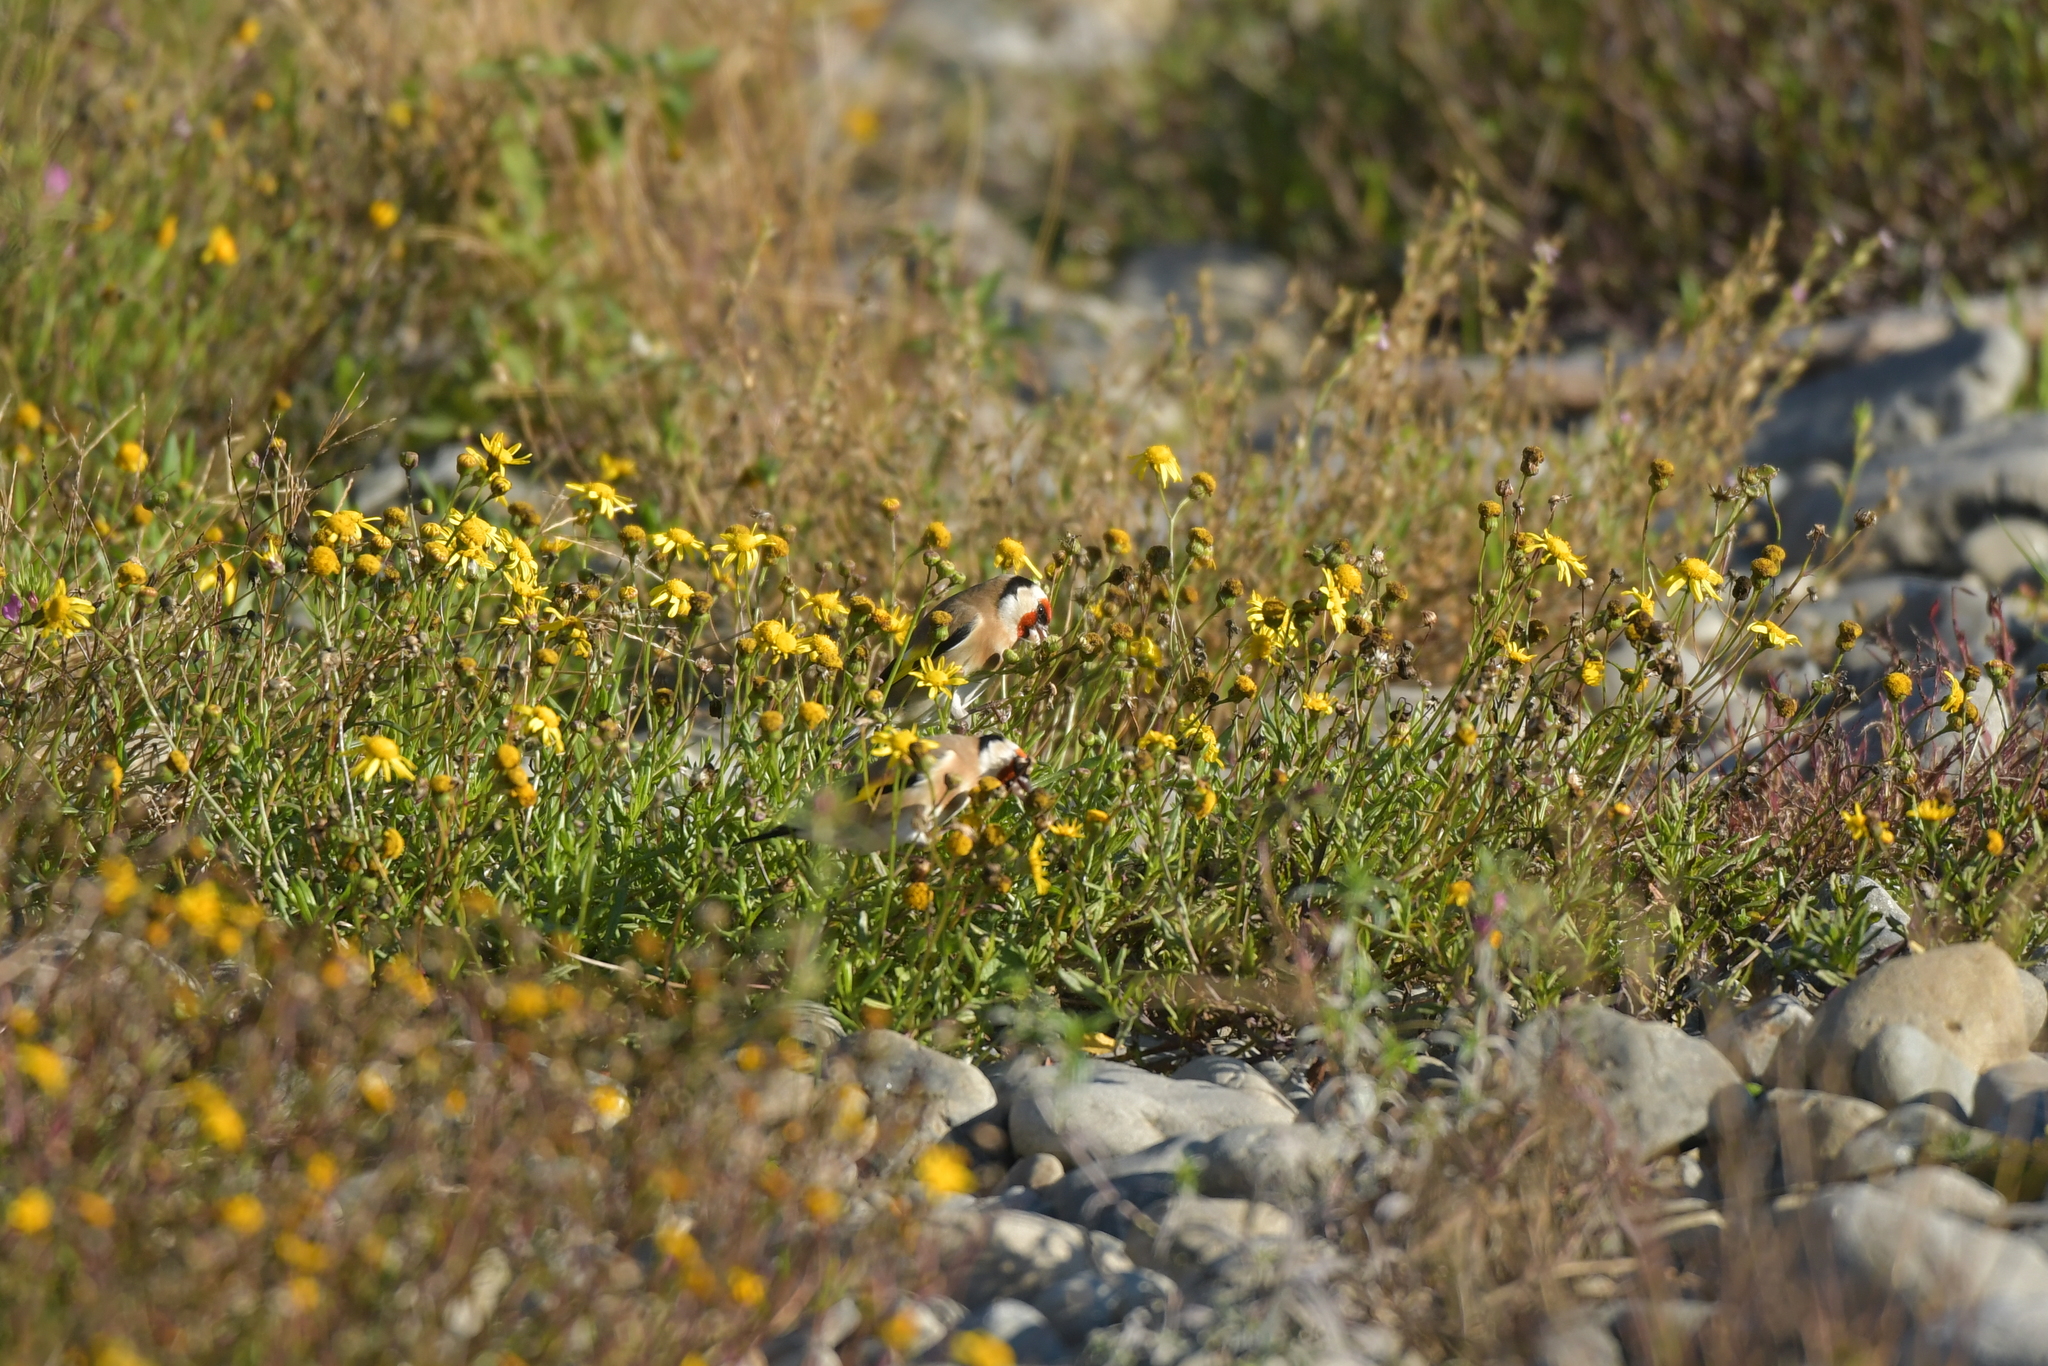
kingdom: Animalia
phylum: Chordata
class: Aves
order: Passeriformes
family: Fringillidae
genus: Carduelis
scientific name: Carduelis carduelis
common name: European goldfinch
